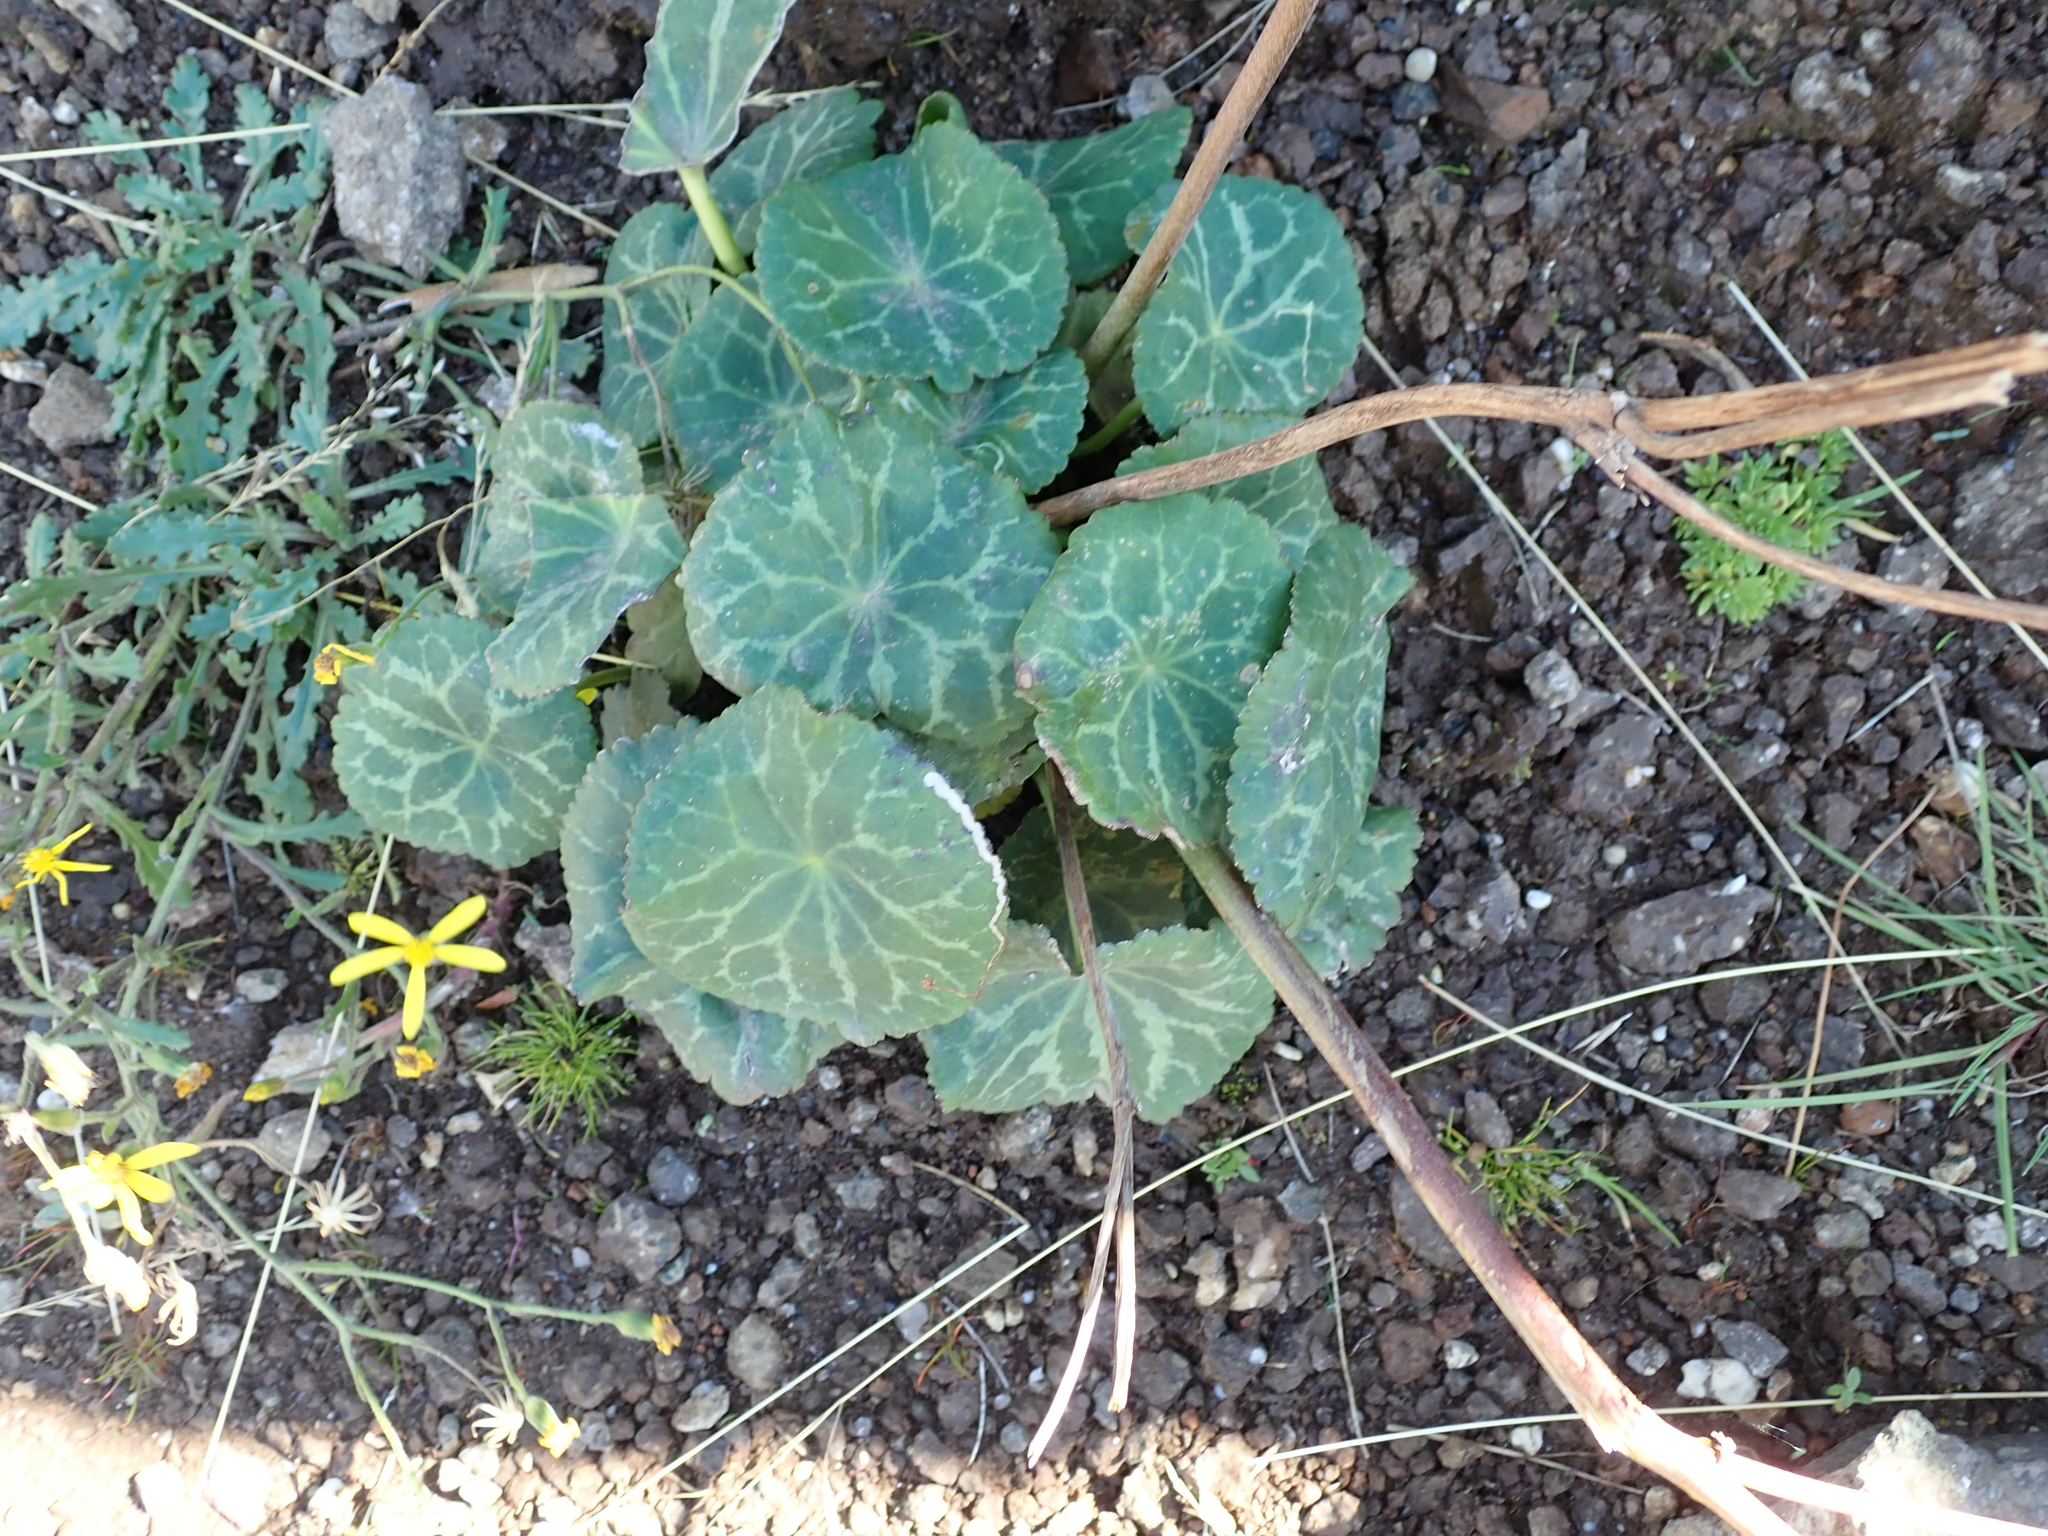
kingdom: Plantae
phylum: Tracheophyta
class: Magnoliopsida
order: Ranunculales
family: Ranunculaceae
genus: Peltocalathos
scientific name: Peltocalathos baurii
